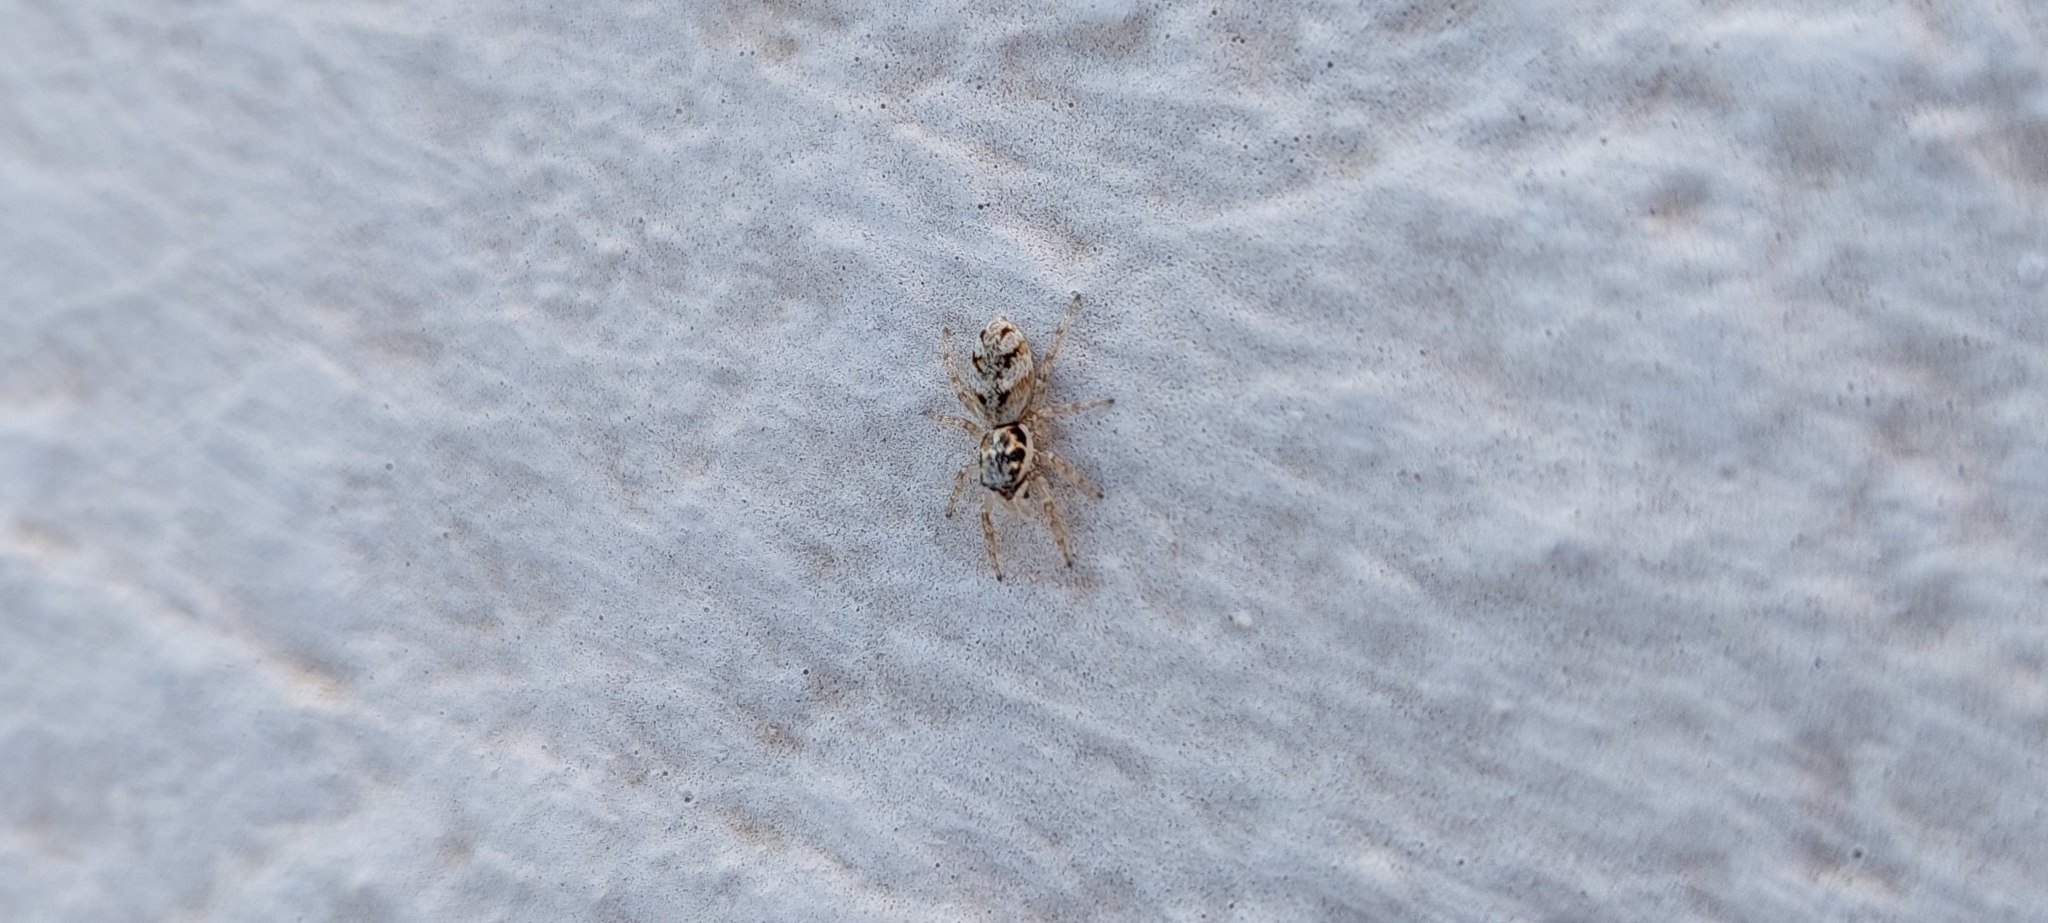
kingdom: Animalia
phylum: Arthropoda
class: Arachnida
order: Araneae
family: Salticidae
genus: Salticus
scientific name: Salticus mutabilis
